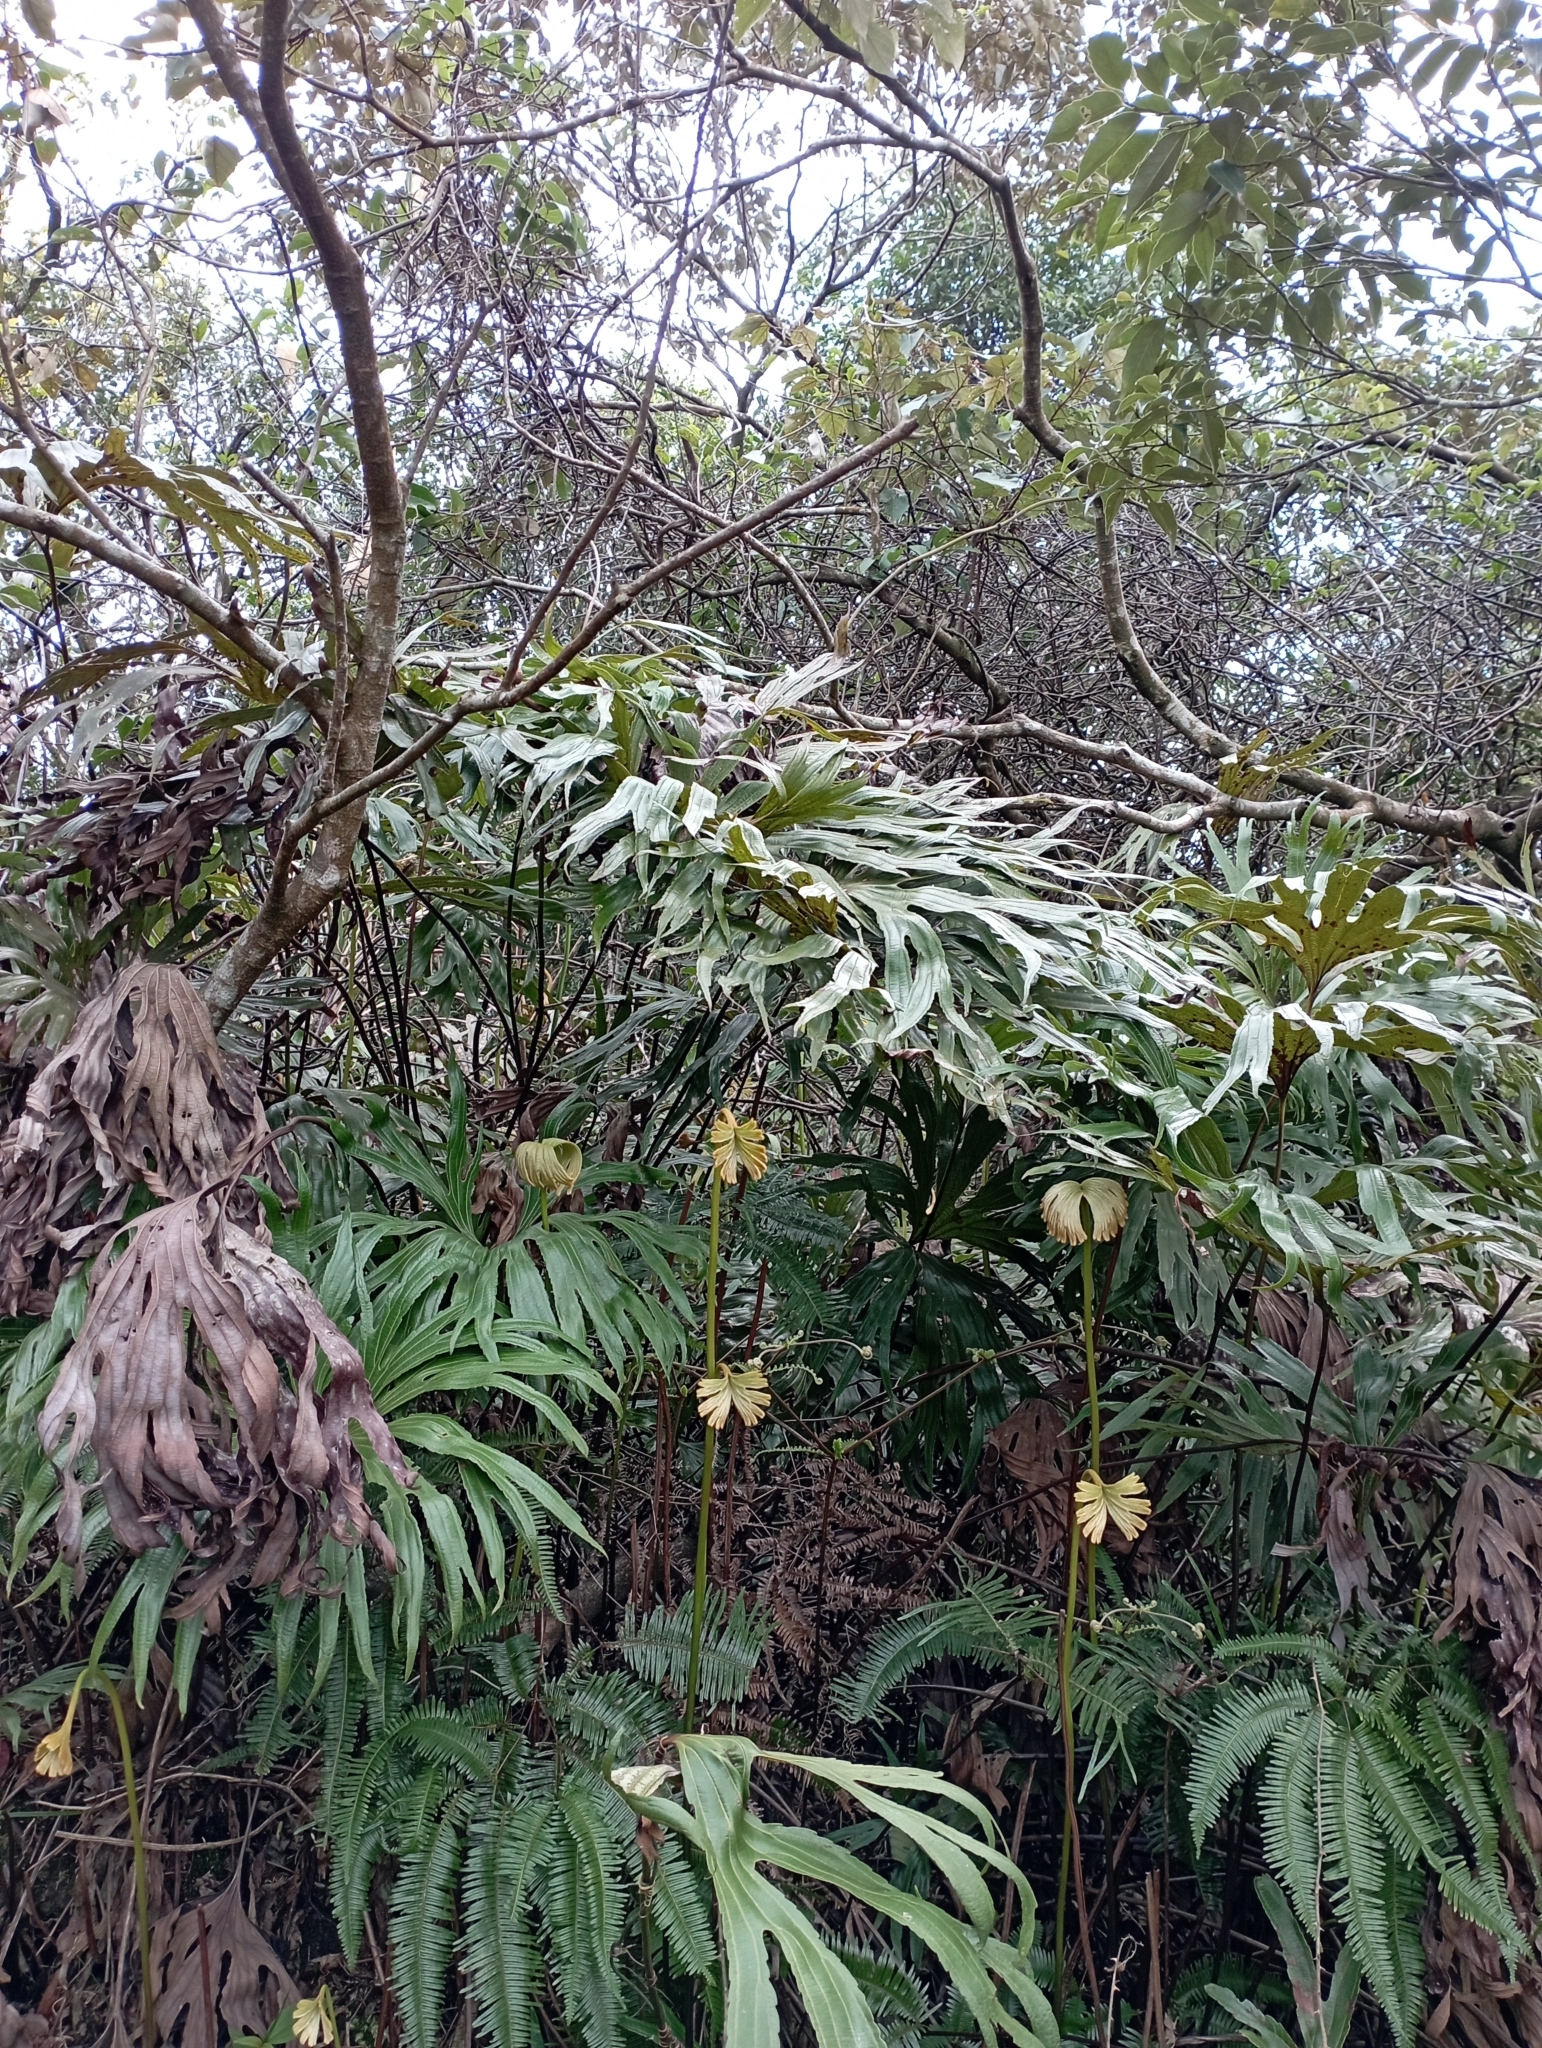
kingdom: Plantae
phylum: Tracheophyta
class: Polypodiopsida
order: Gleicheniales
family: Dipteridaceae
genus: Dipteris
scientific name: Dipteris conjugata
